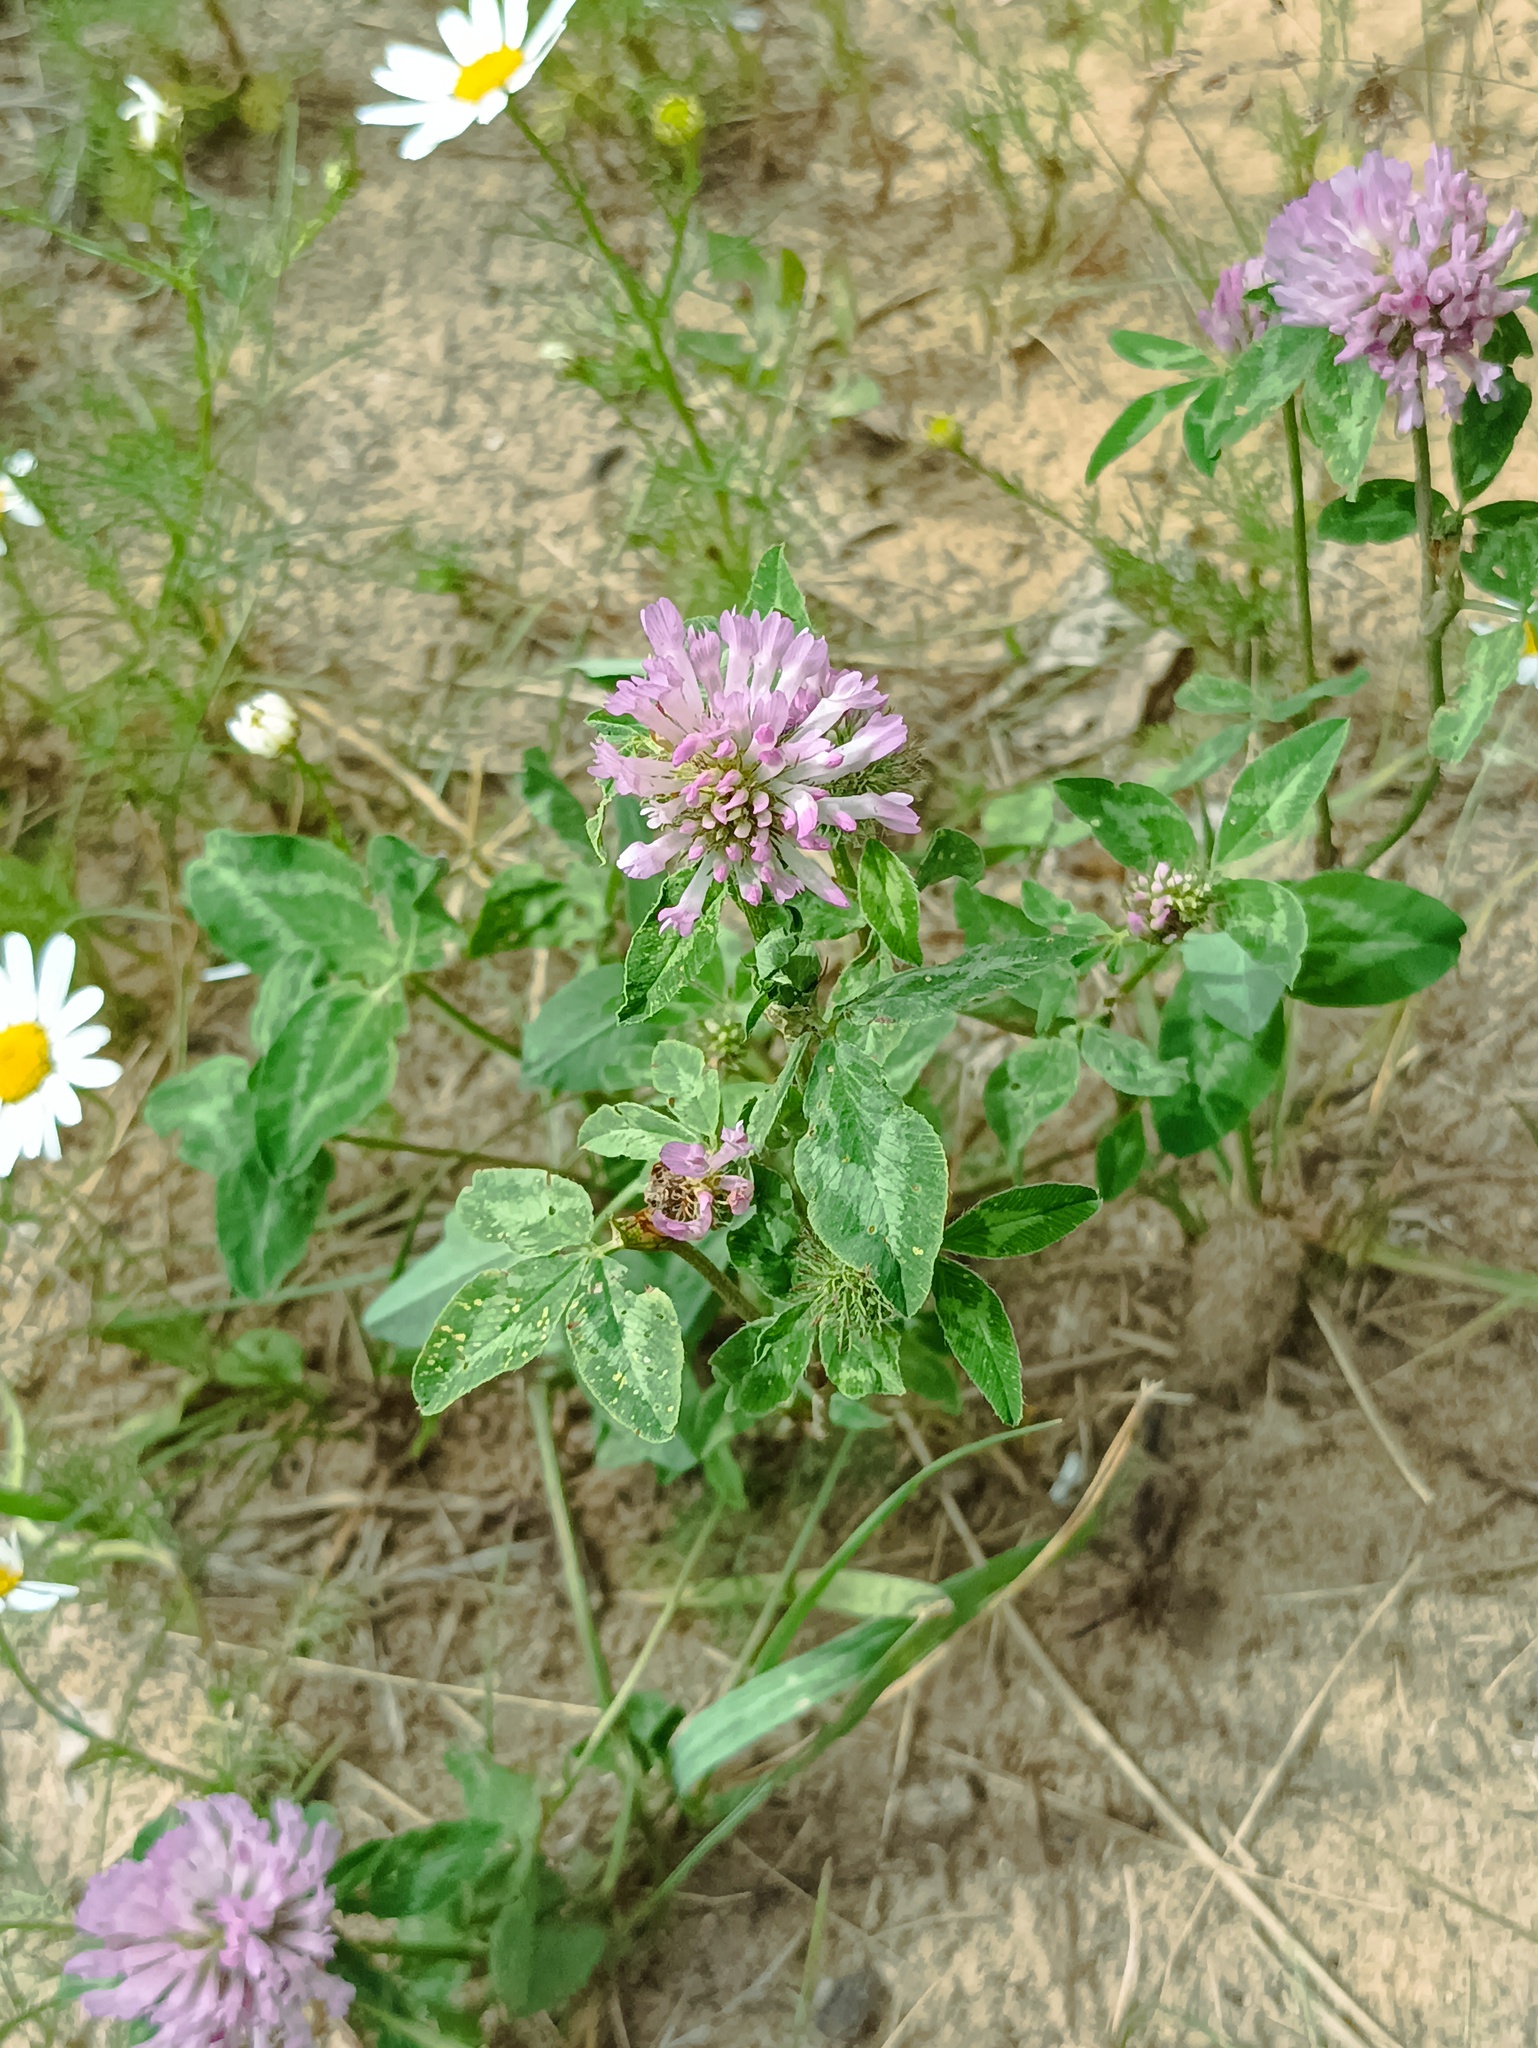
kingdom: Plantae
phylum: Tracheophyta
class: Magnoliopsida
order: Fabales
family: Fabaceae
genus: Trifolium
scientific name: Trifolium pratense
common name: Red clover
